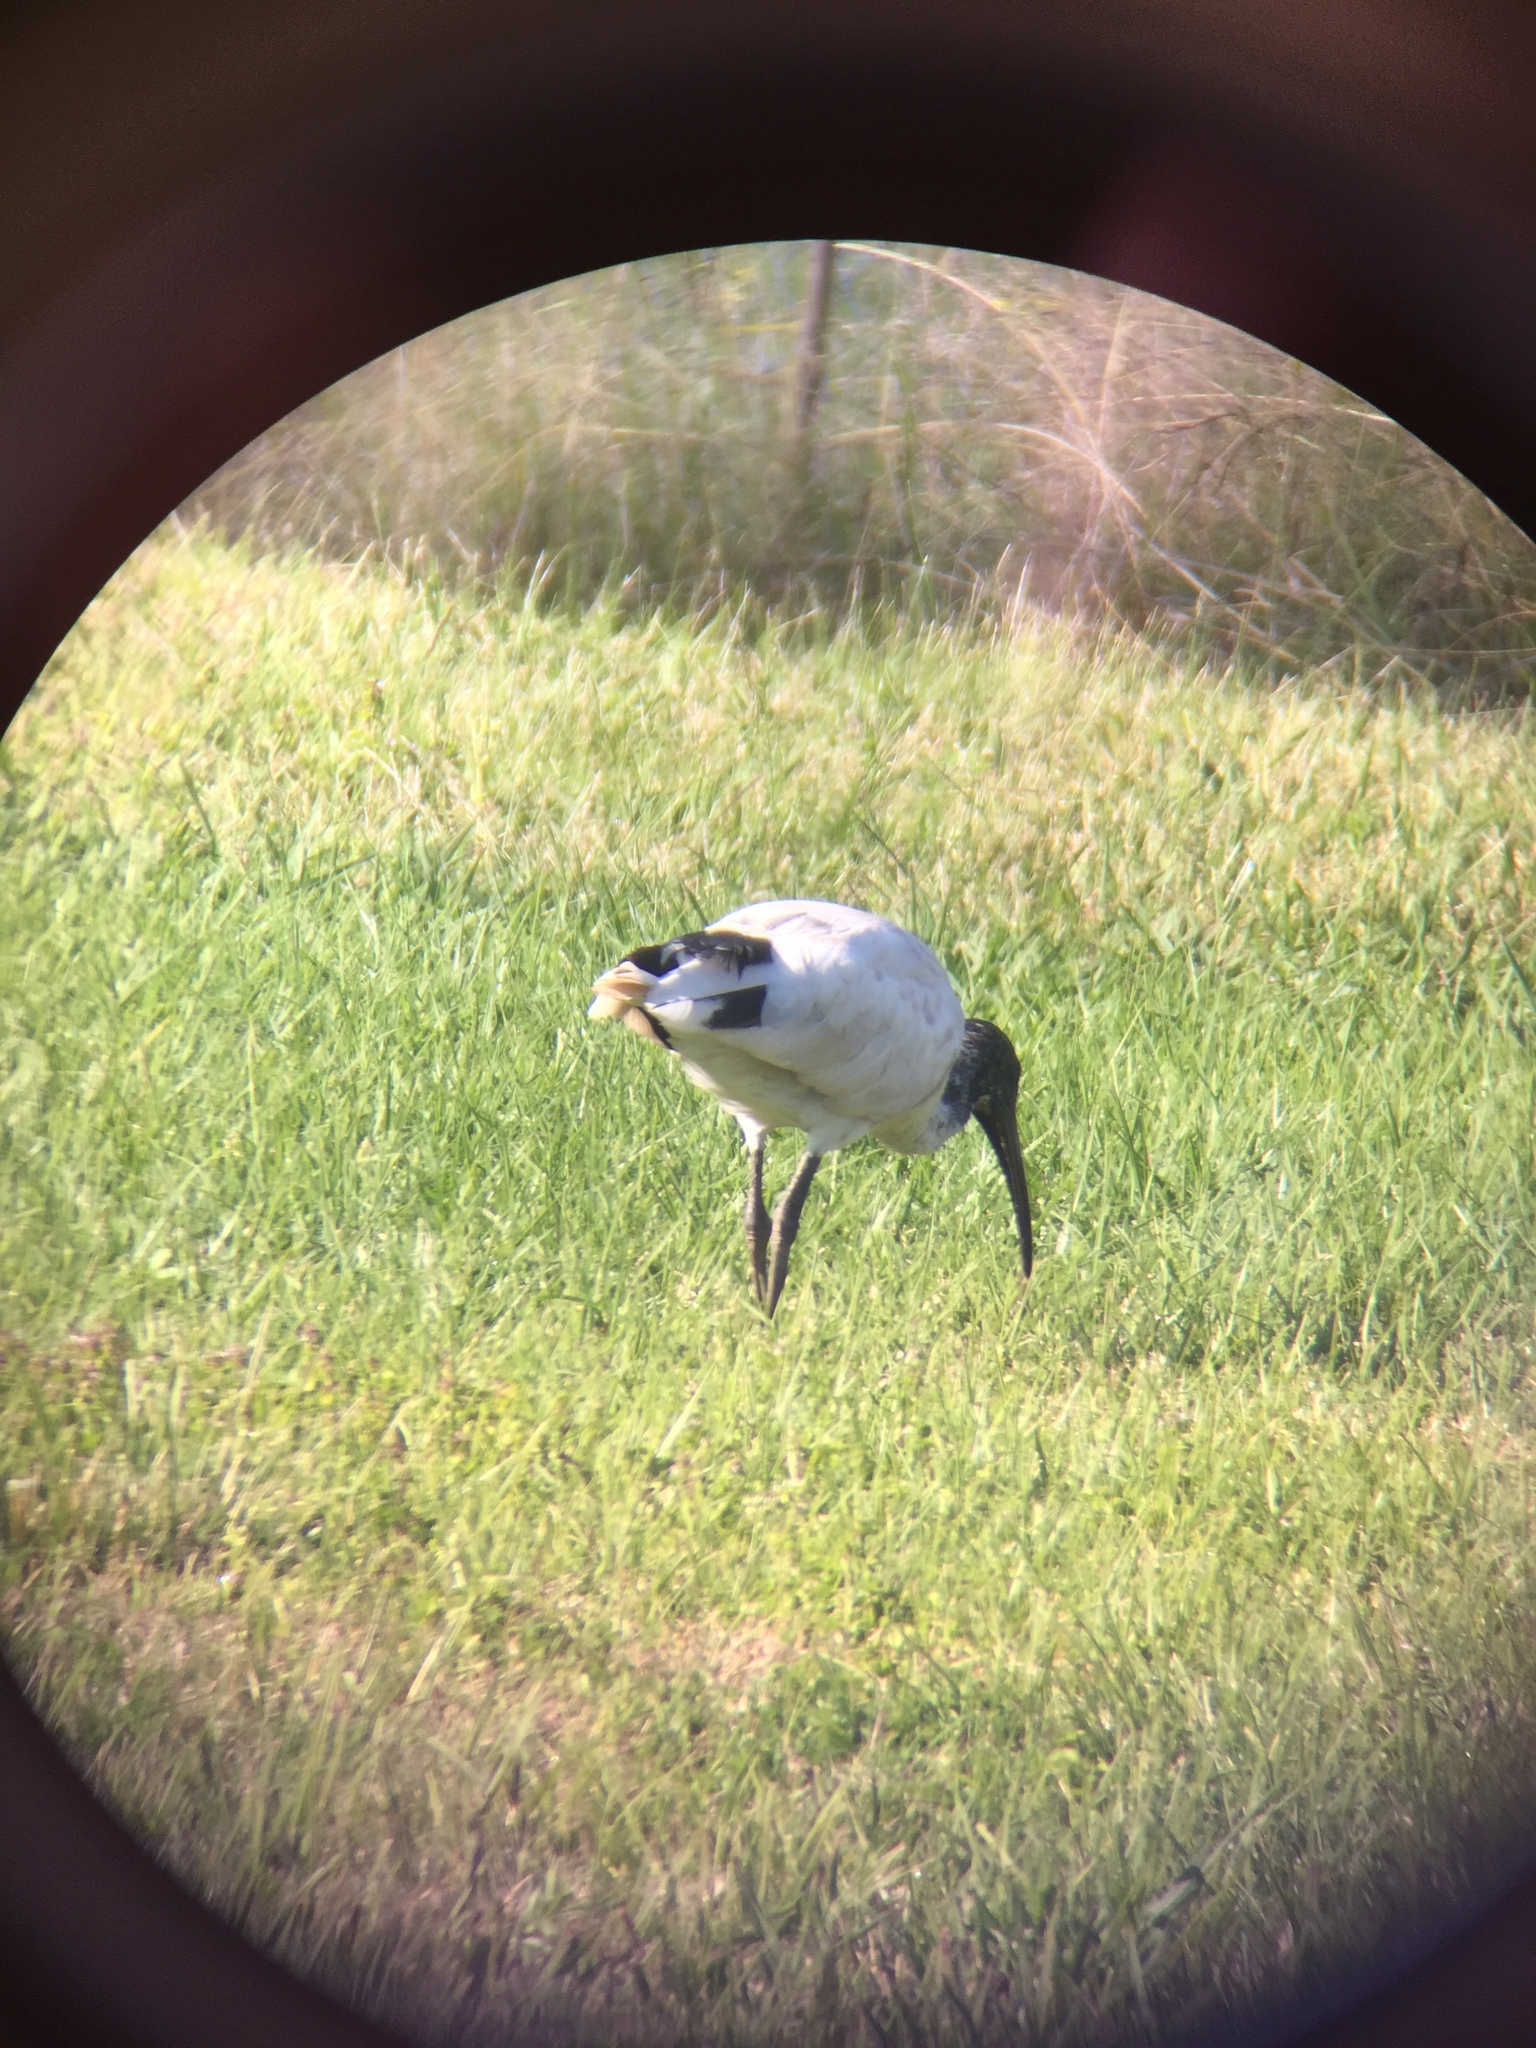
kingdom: Animalia
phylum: Chordata
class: Aves
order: Pelecaniformes
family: Threskiornithidae
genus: Threskiornis
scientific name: Threskiornis spinicollis
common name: Straw-necked ibis
